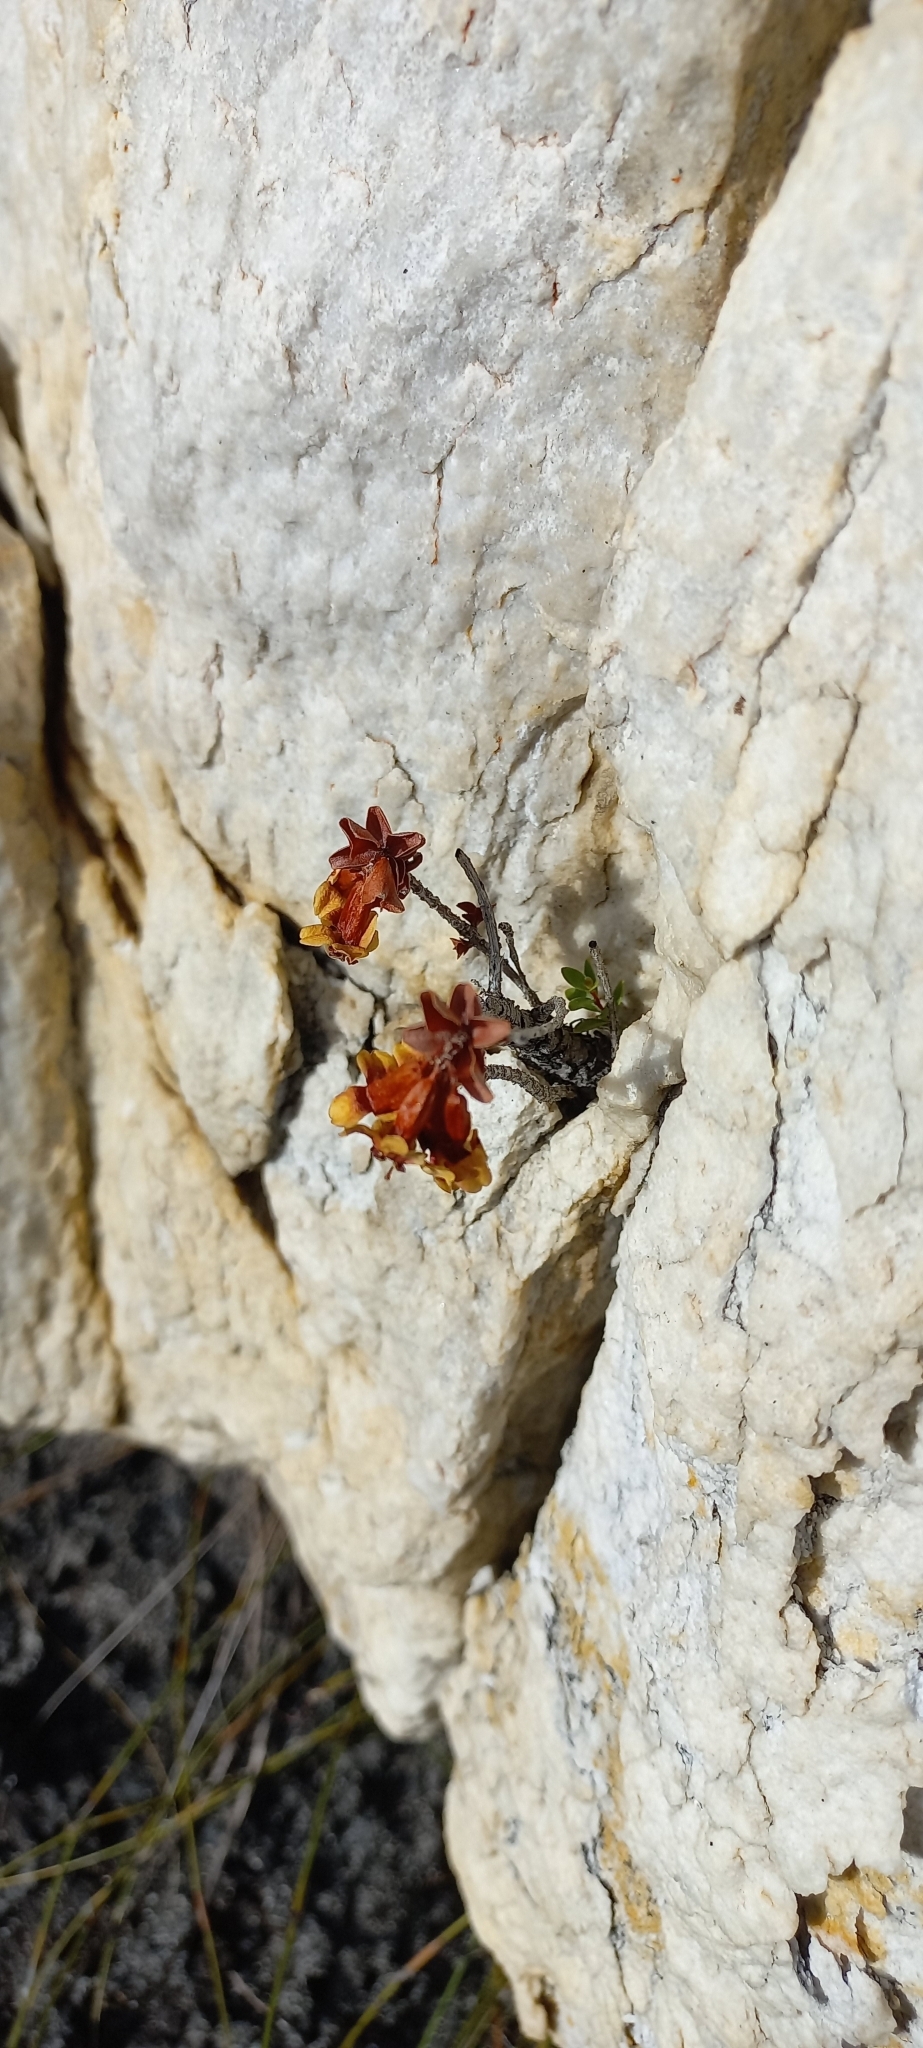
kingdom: Plantae
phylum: Tracheophyta
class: Magnoliopsida
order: Myrtales
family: Penaeaceae
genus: Sonderothamnus
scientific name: Sonderothamnus petraeus
